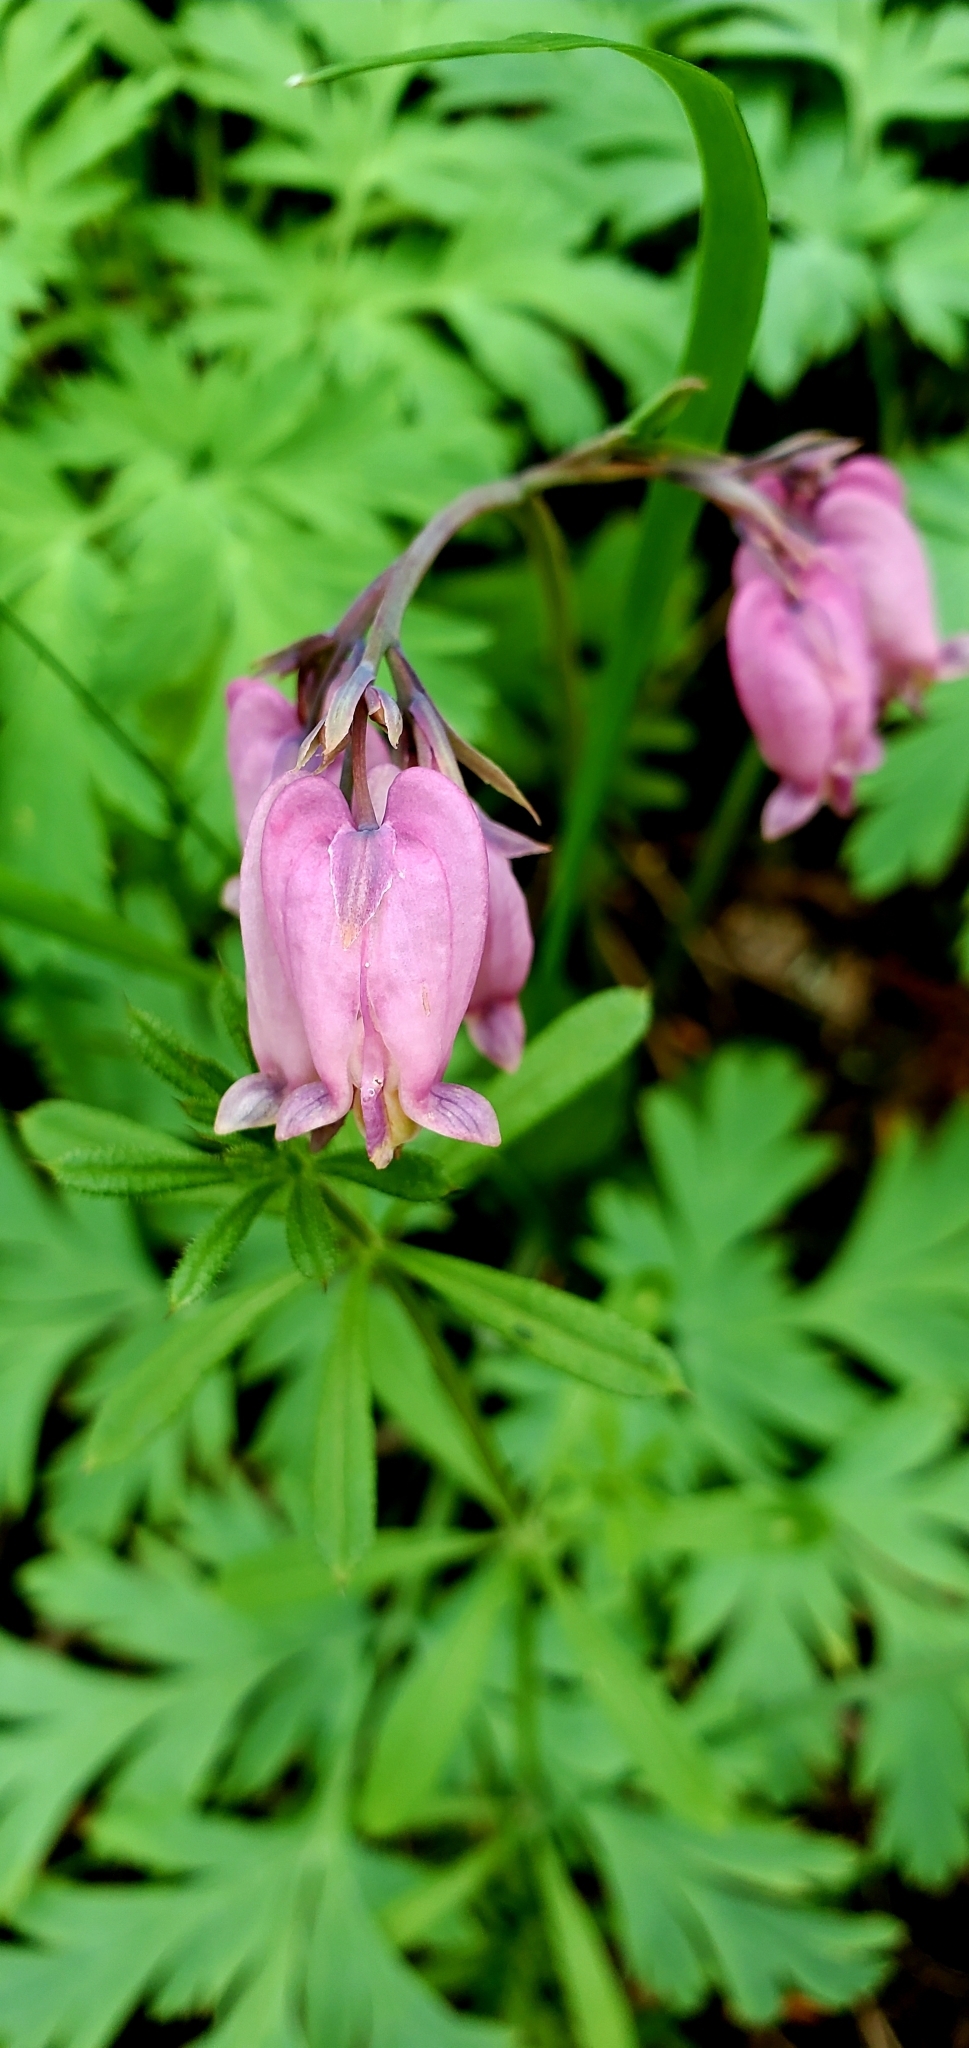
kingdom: Plantae
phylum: Tracheophyta
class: Magnoliopsida
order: Ranunculales
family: Papaveraceae
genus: Dicentra
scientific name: Dicentra formosa
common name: Bleeding-heart
